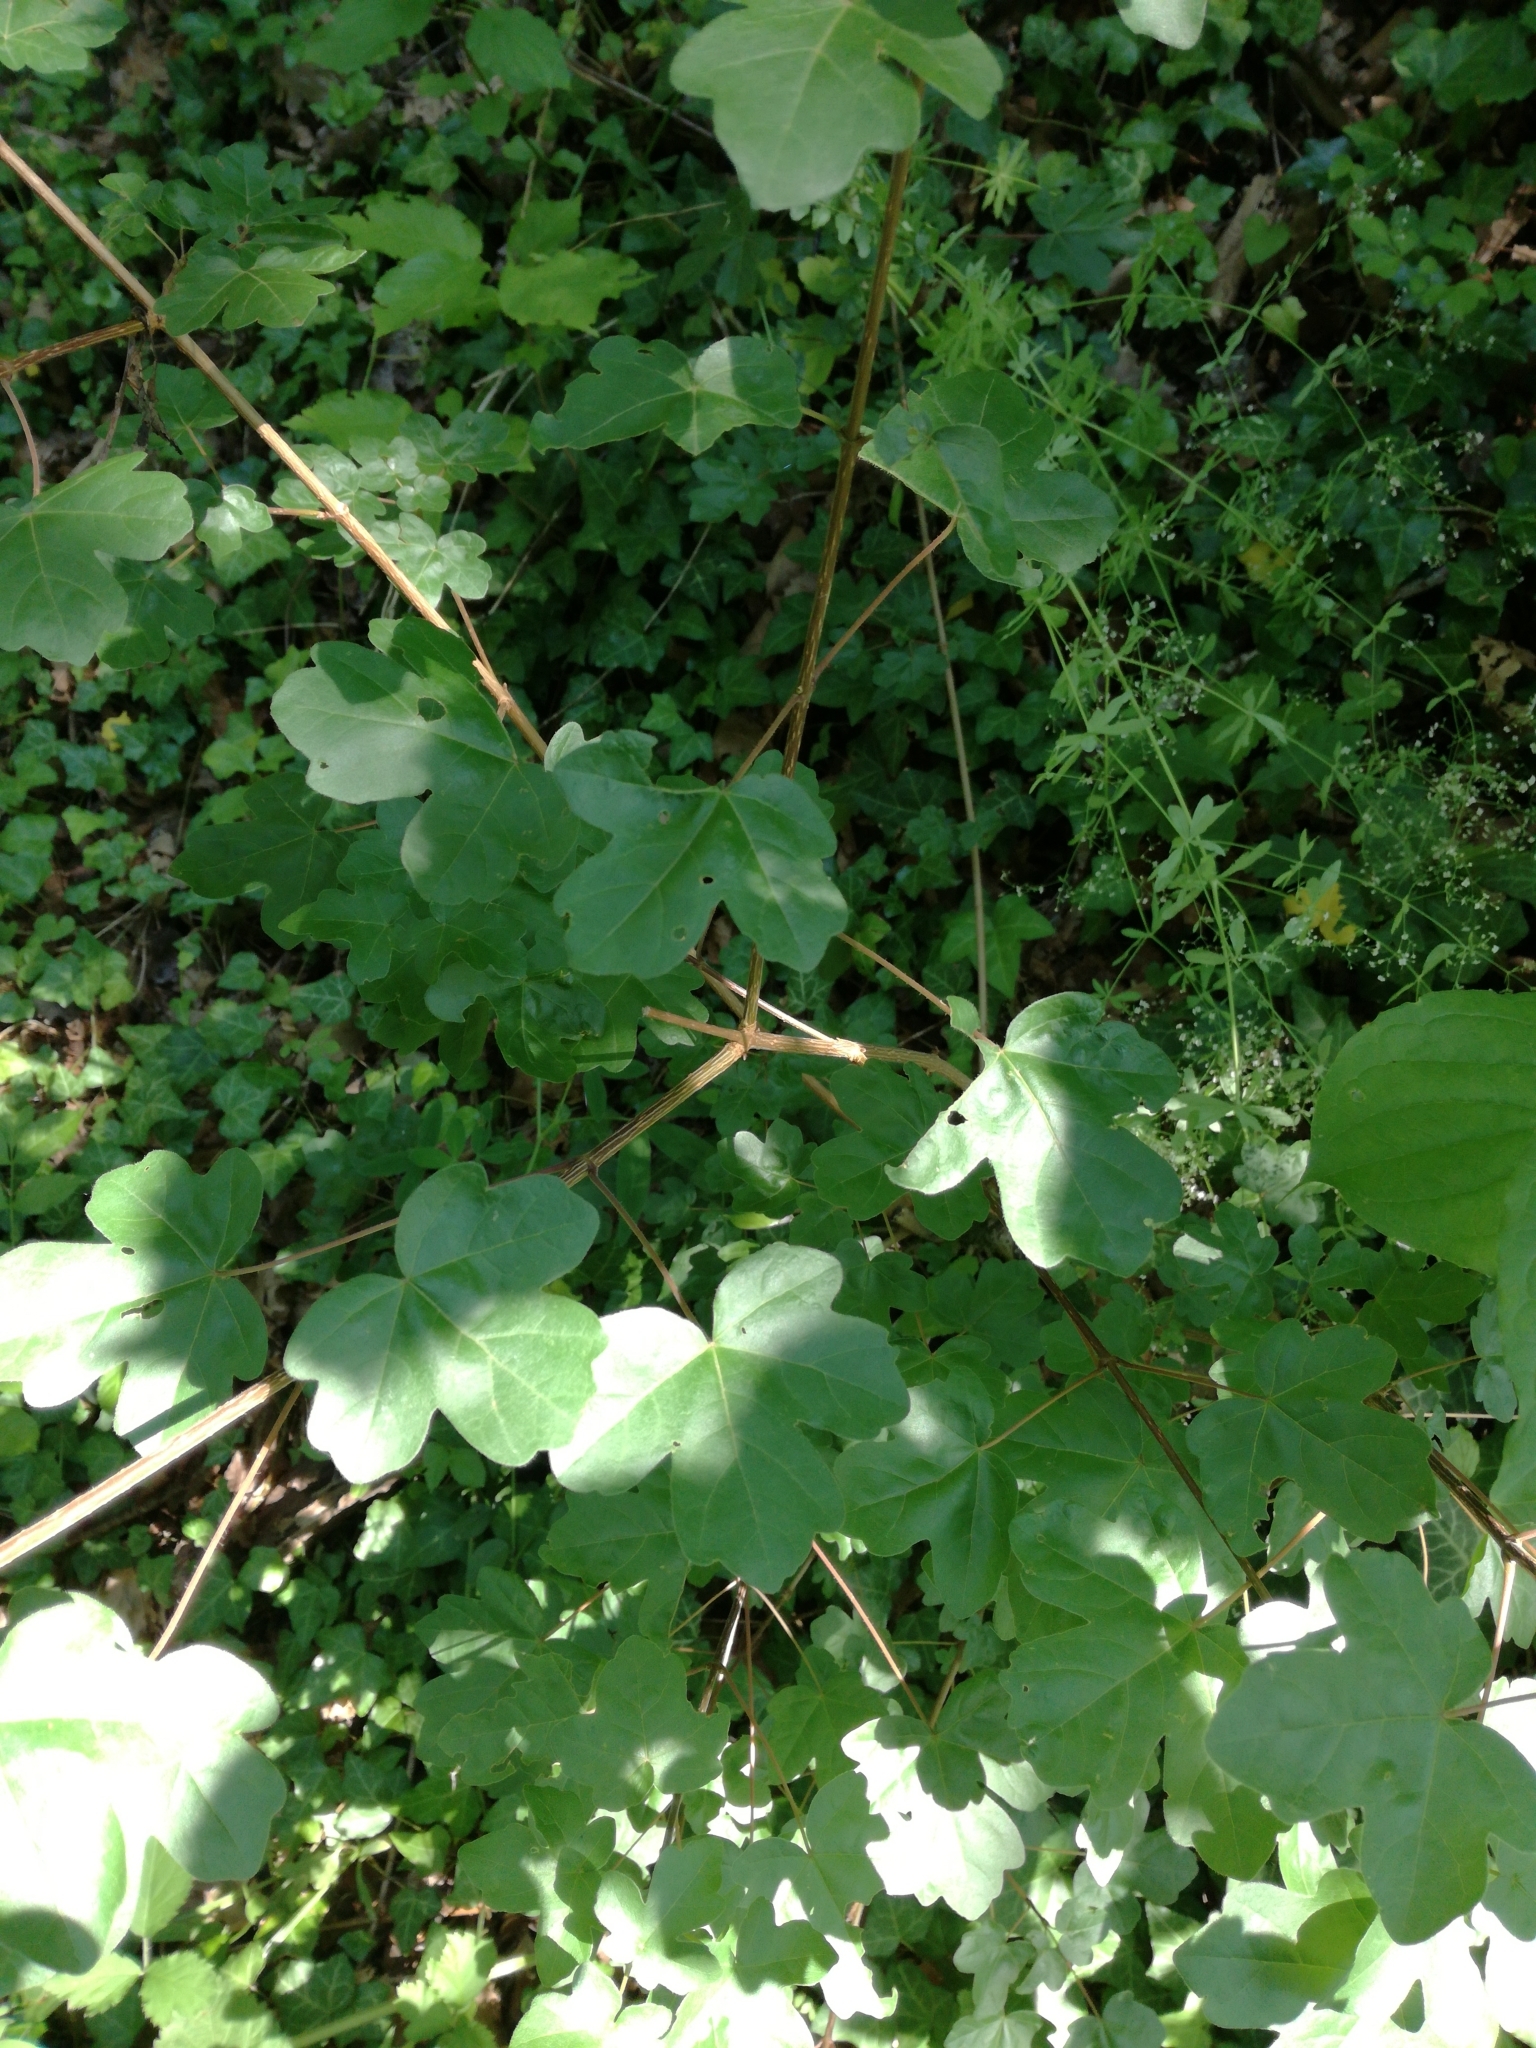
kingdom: Plantae
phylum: Tracheophyta
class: Magnoliopsida
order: Sapindales
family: Sapindaceae
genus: Acer
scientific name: Acer campestre
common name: Field maple
